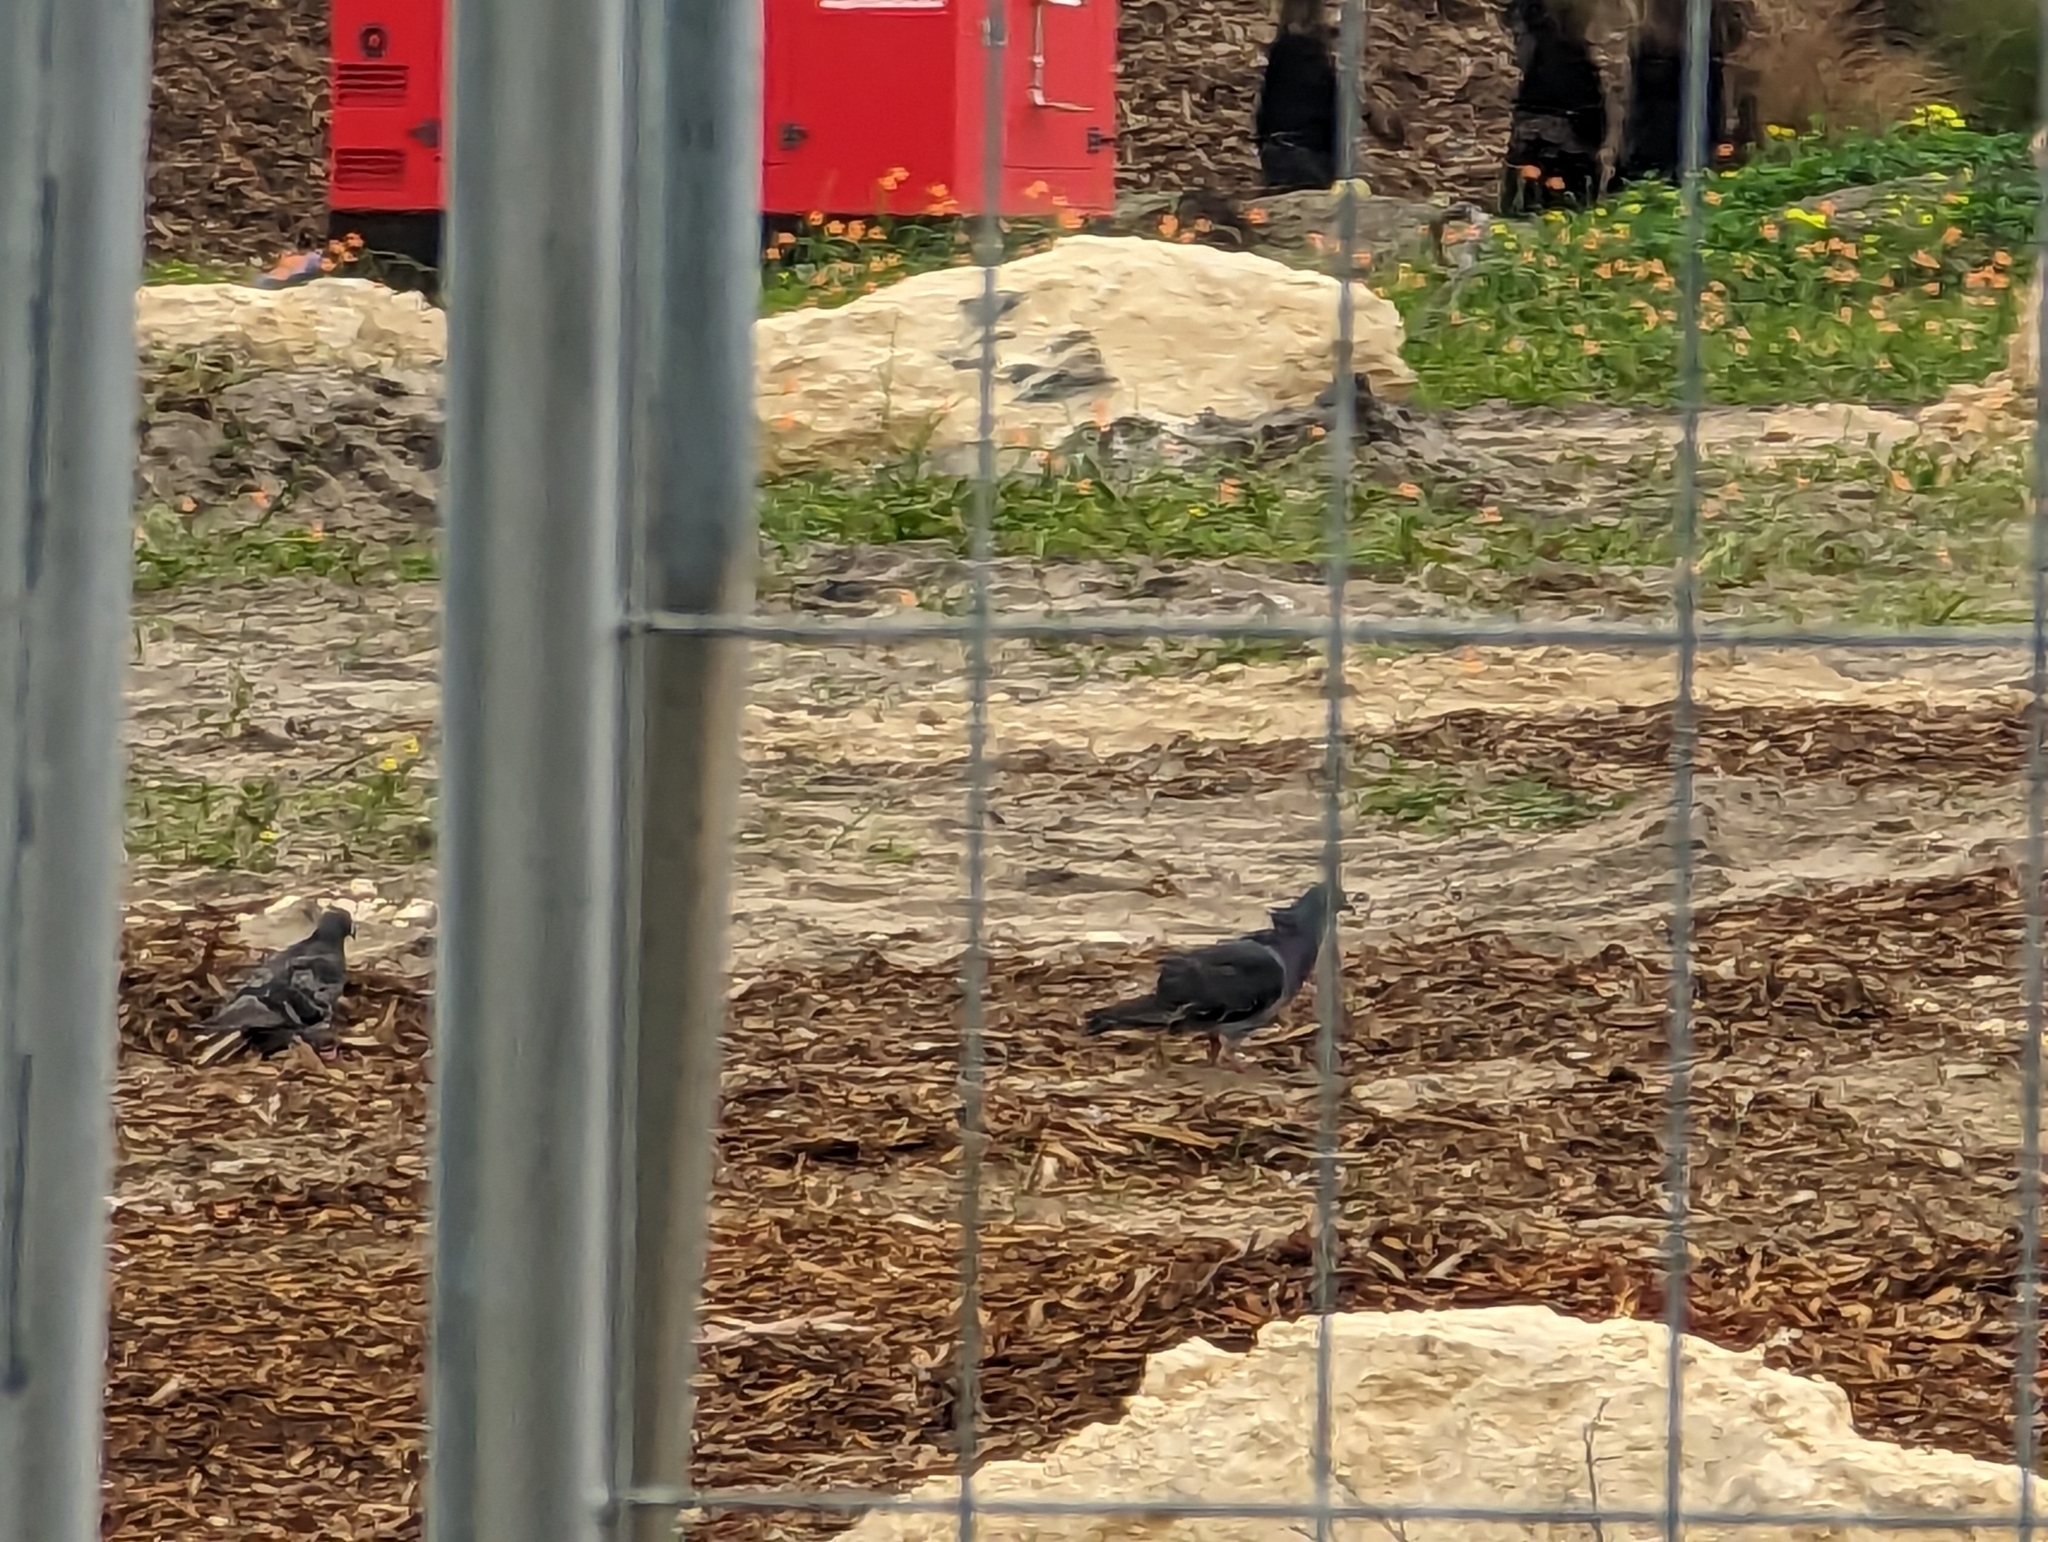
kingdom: Animalia
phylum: Chordata
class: Aves
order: Columbiformes
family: Columbidae
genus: Columba
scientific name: Columba livia
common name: Rock pigeon
